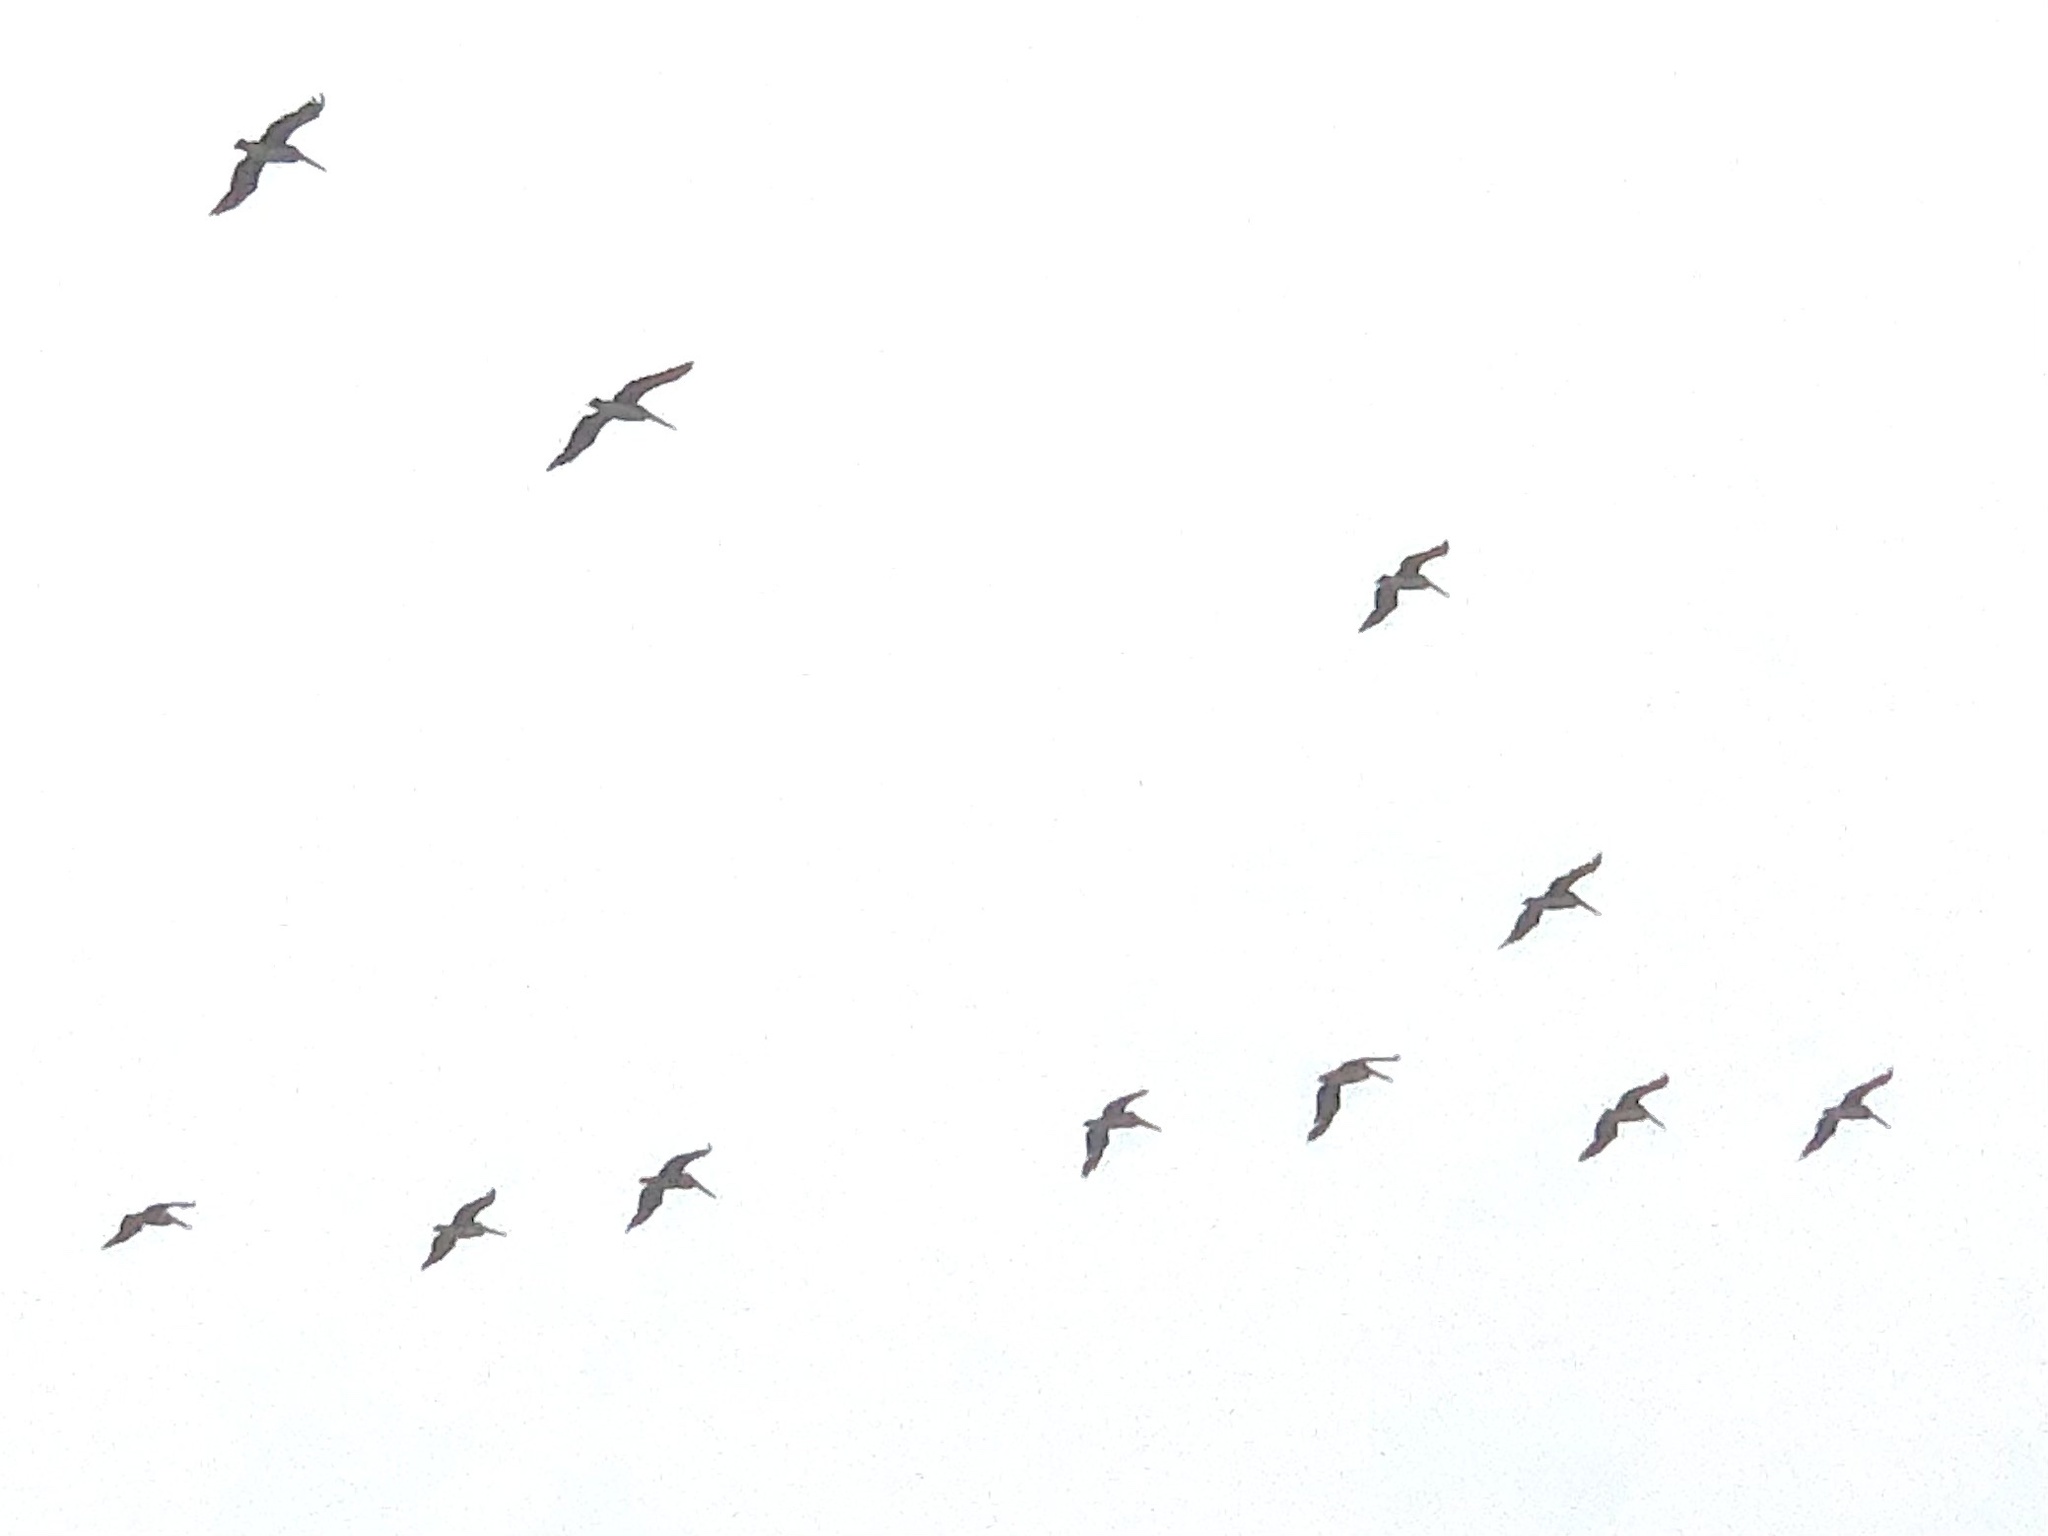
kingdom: Animalia
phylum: Chordata
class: Aves
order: Pelecaniformes
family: Pelecanidae
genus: Pelecanus
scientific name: Pelecanus occidentalis
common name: Brown pelican
